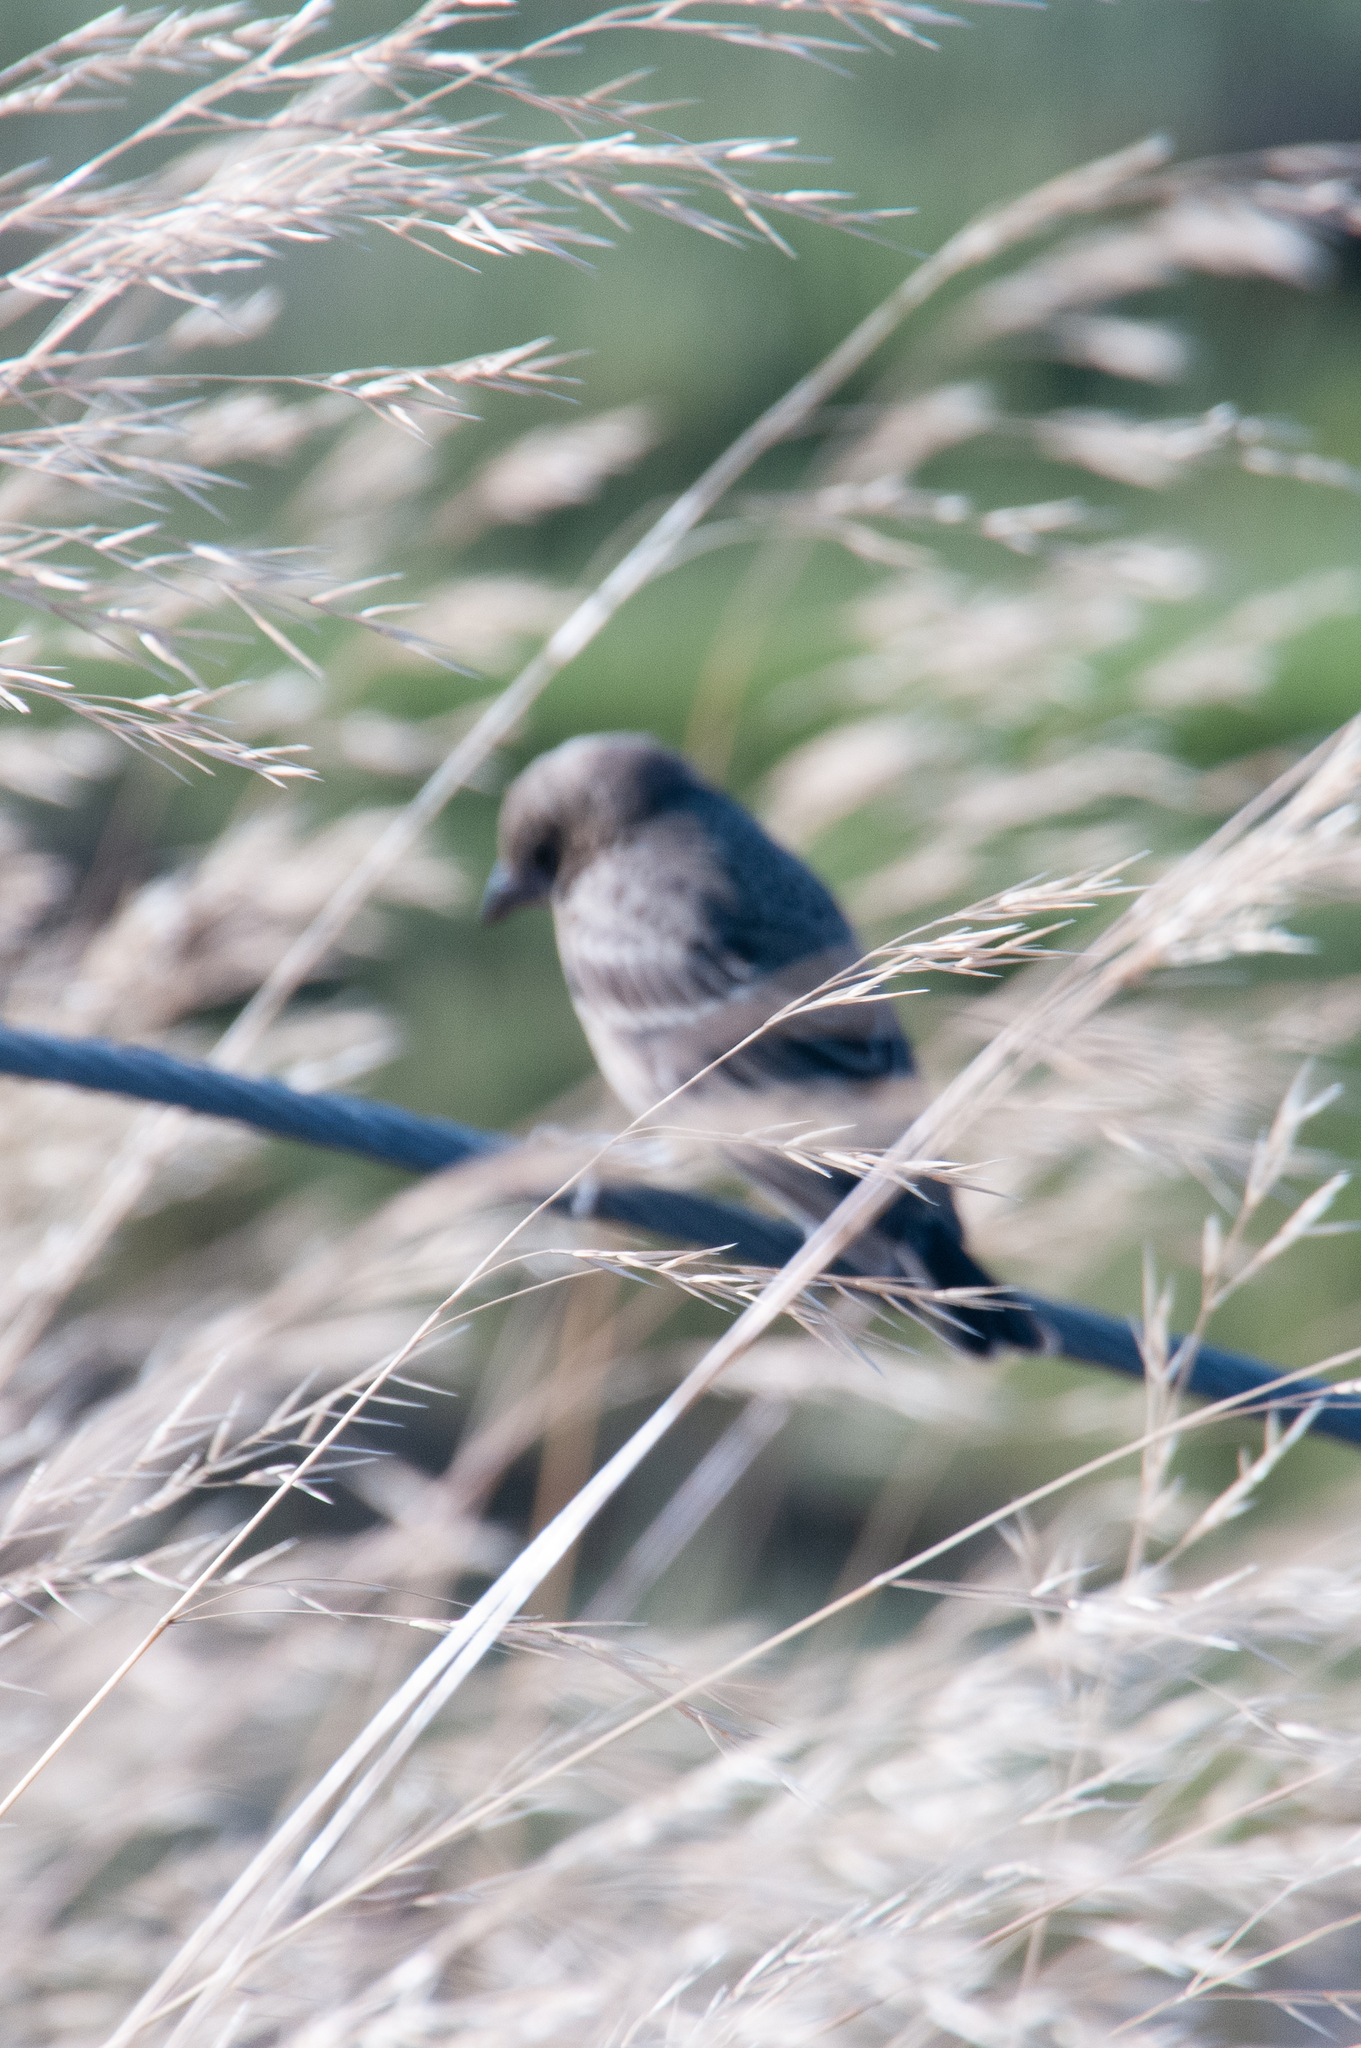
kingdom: Animalia
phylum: Chordata
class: Aves
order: Passeriformes
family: Icteridae
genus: Molothrus
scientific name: Molothrus ater
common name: Brown-headed cowbird
